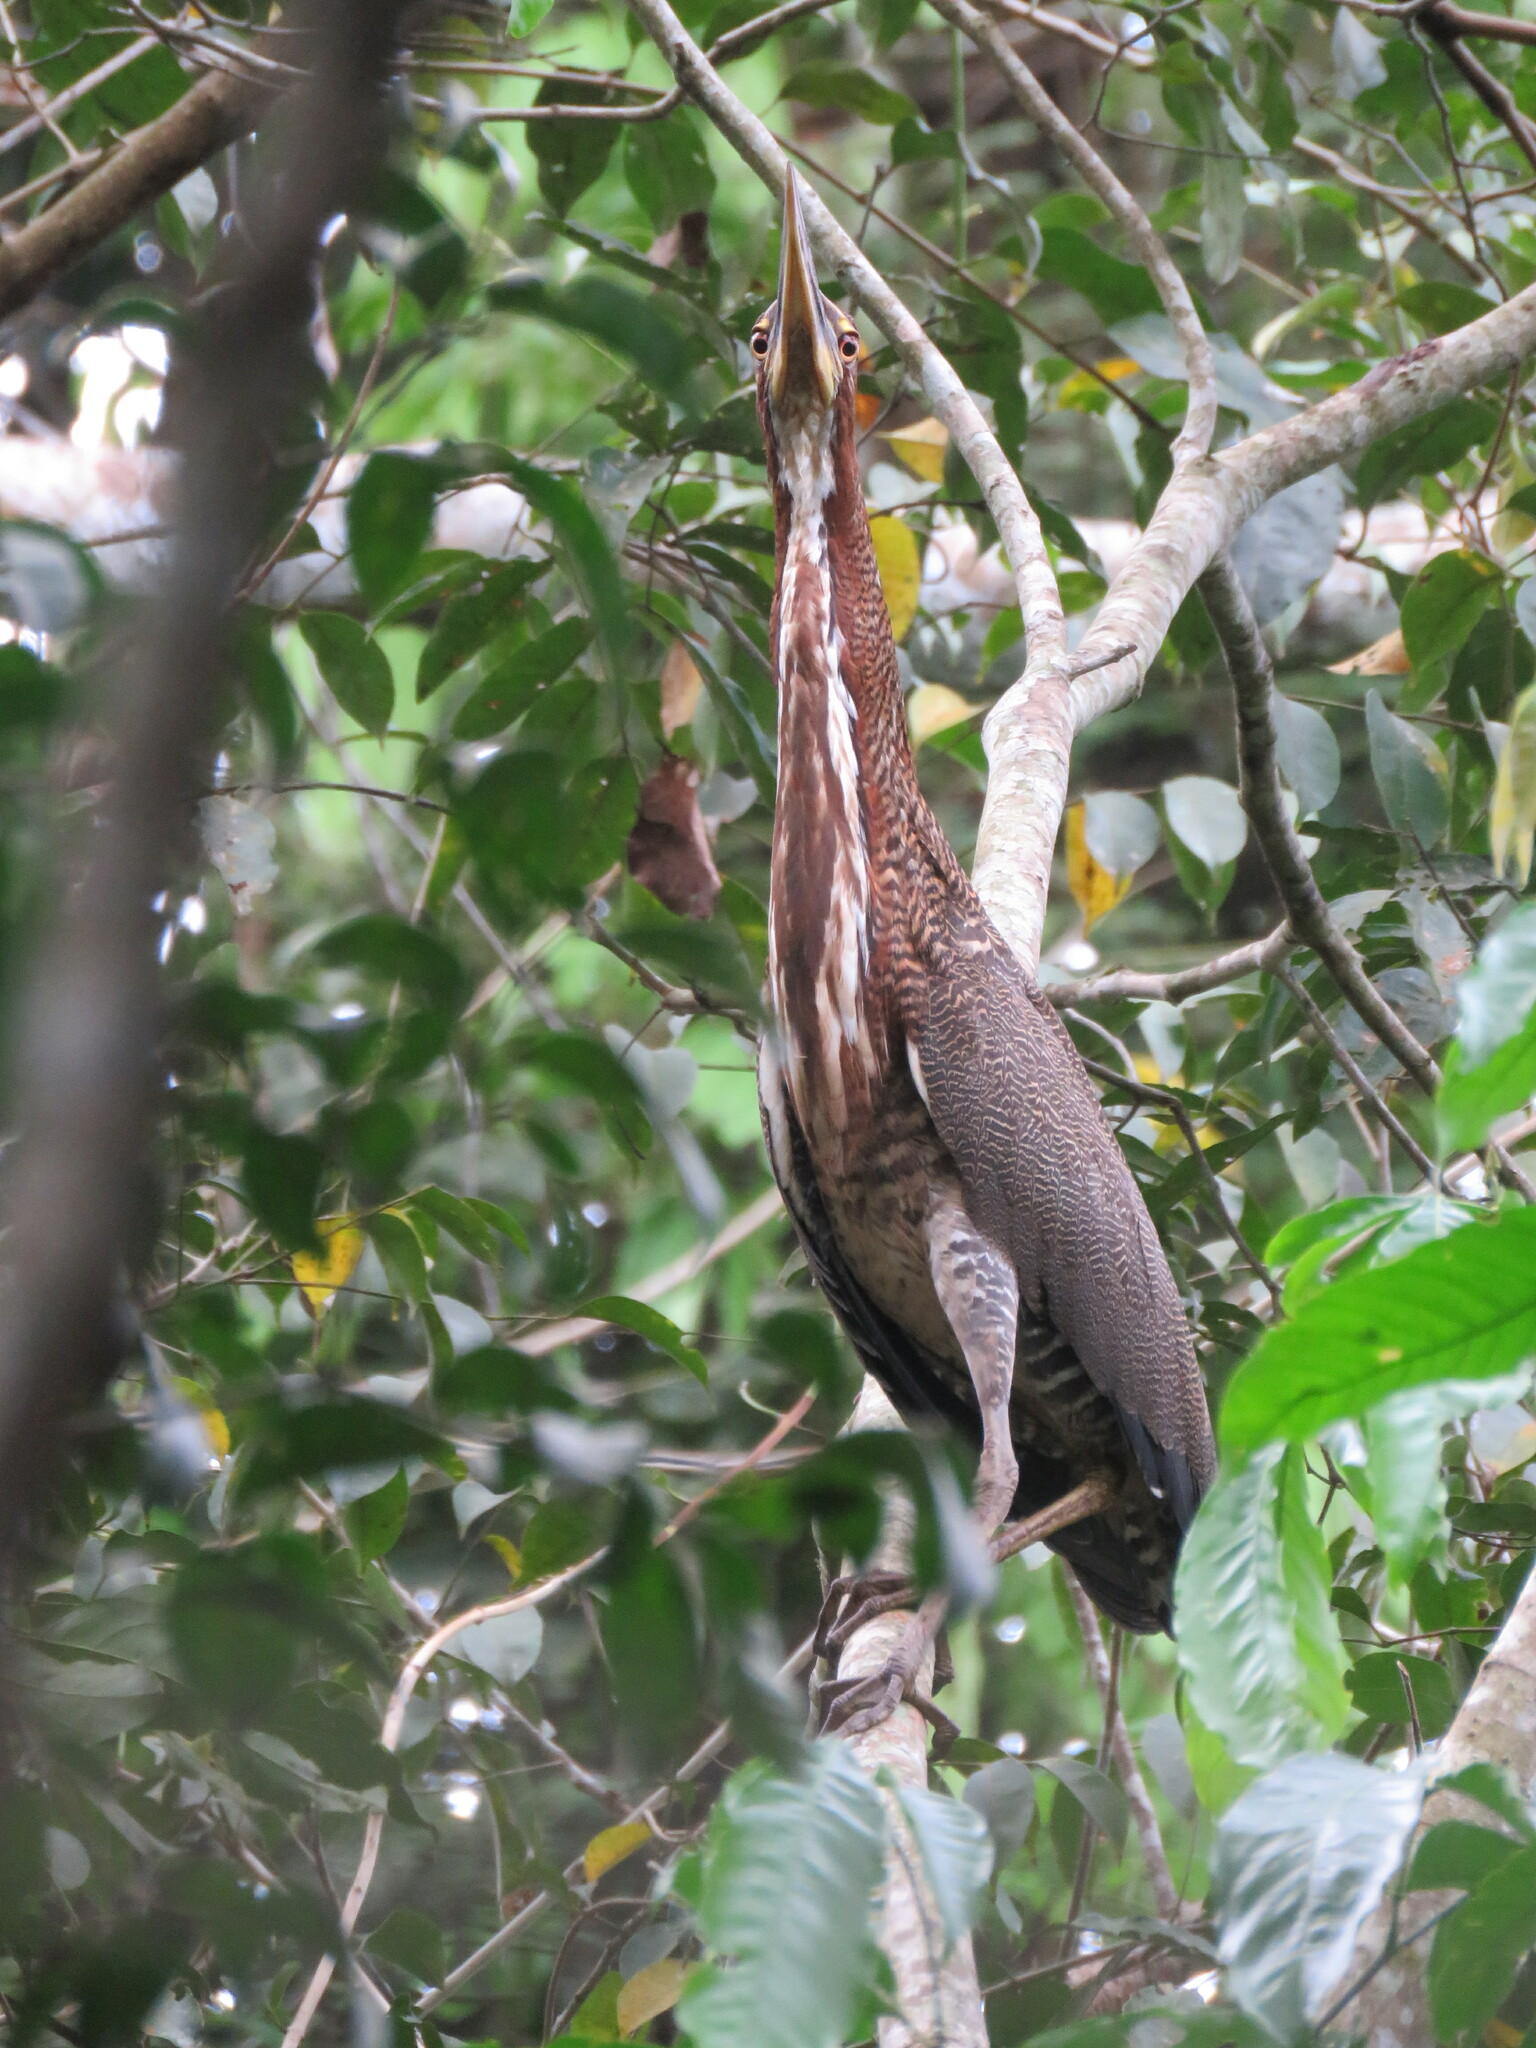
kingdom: Animalia
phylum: Chordata
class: Aves
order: Pelecaniformes
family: Ardeidae
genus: Tigrisoma
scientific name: Tigrisoma lineatum
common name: Rufescent tiger-heron
